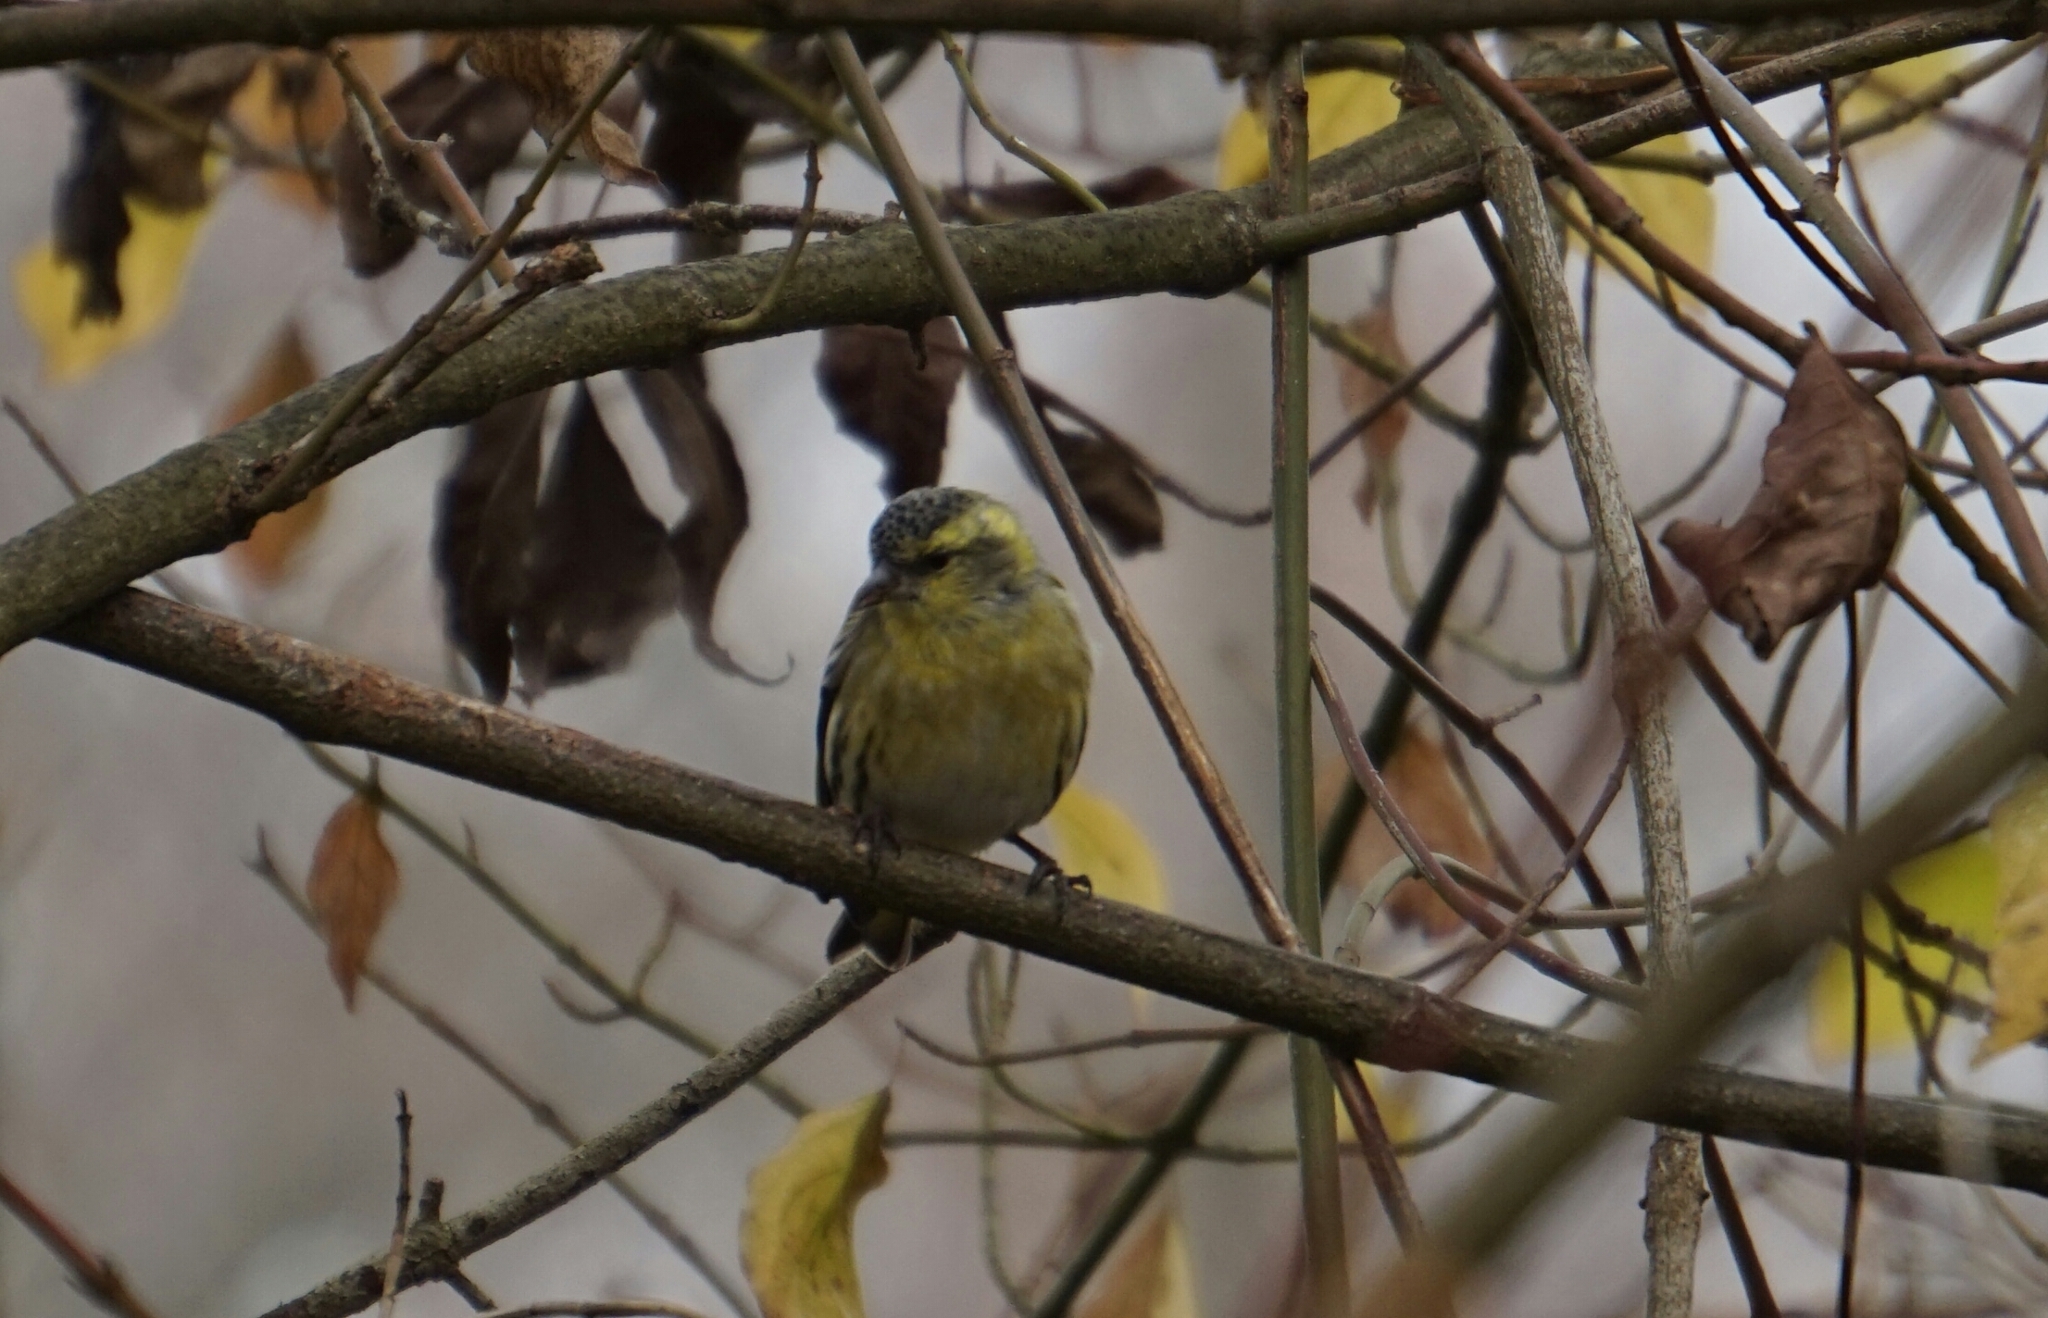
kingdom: Animalia
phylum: Chordata
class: Aves
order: Passeriformes
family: Fringillidae
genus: Spinus
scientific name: Spinus spinus
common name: Eurasian siskin
